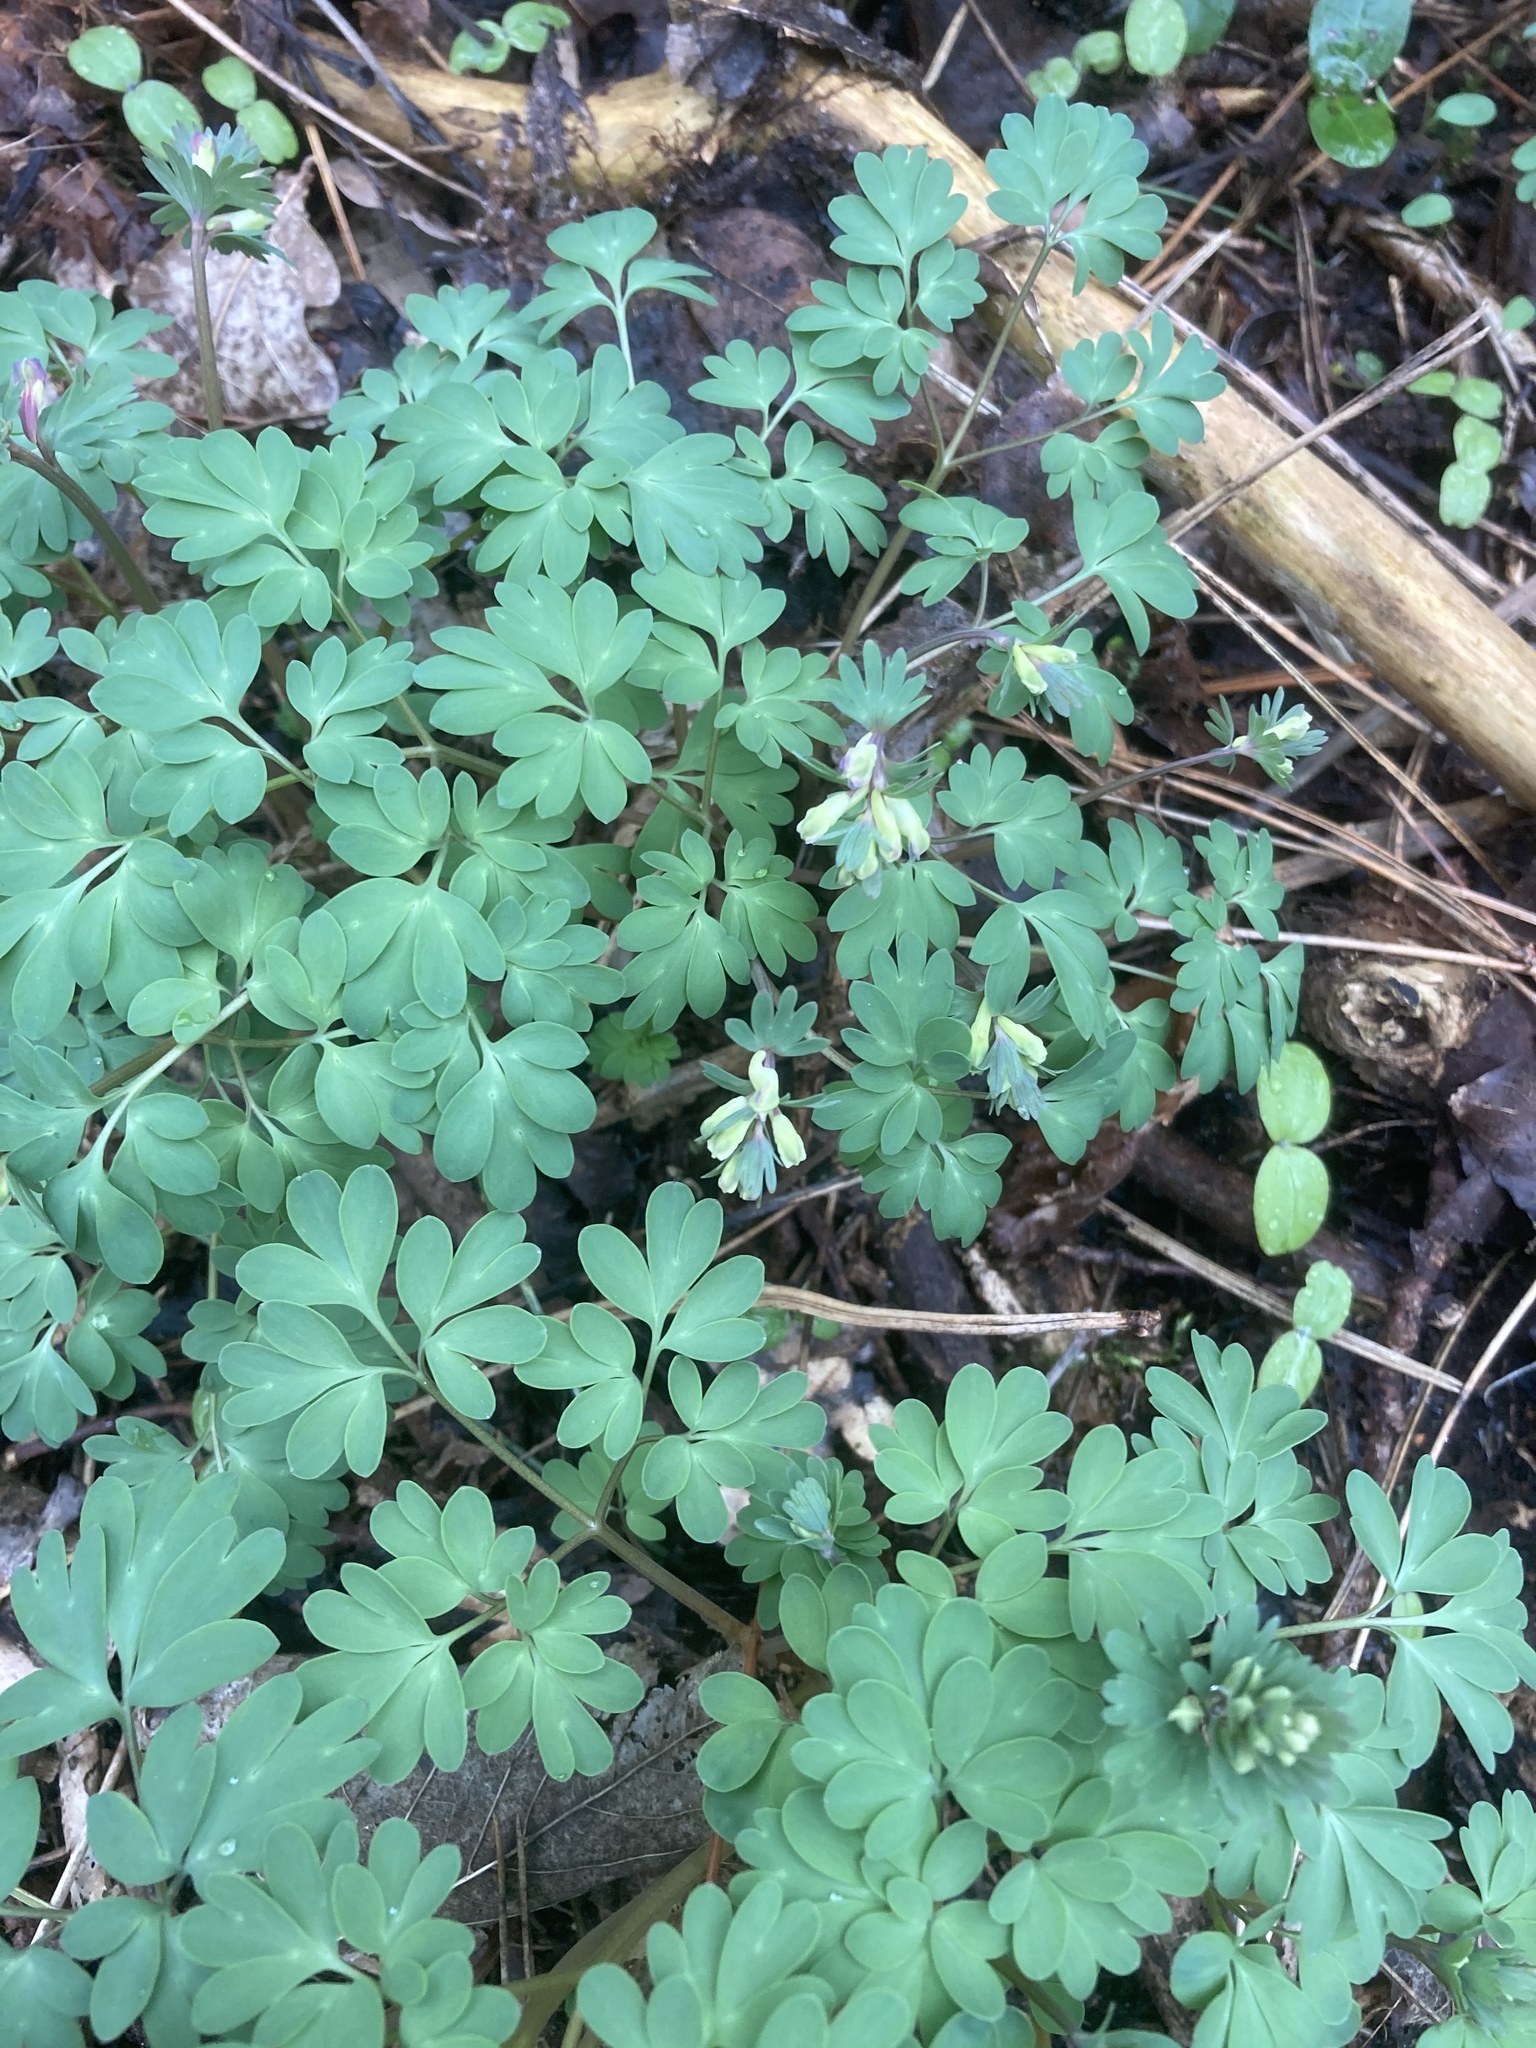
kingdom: Plantae
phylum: Tracheophyta
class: Magnoliopsida
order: Ranunculales
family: Papaveraceae
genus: Corydalis
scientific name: Corydalis solida
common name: Bird-in-a-bush
